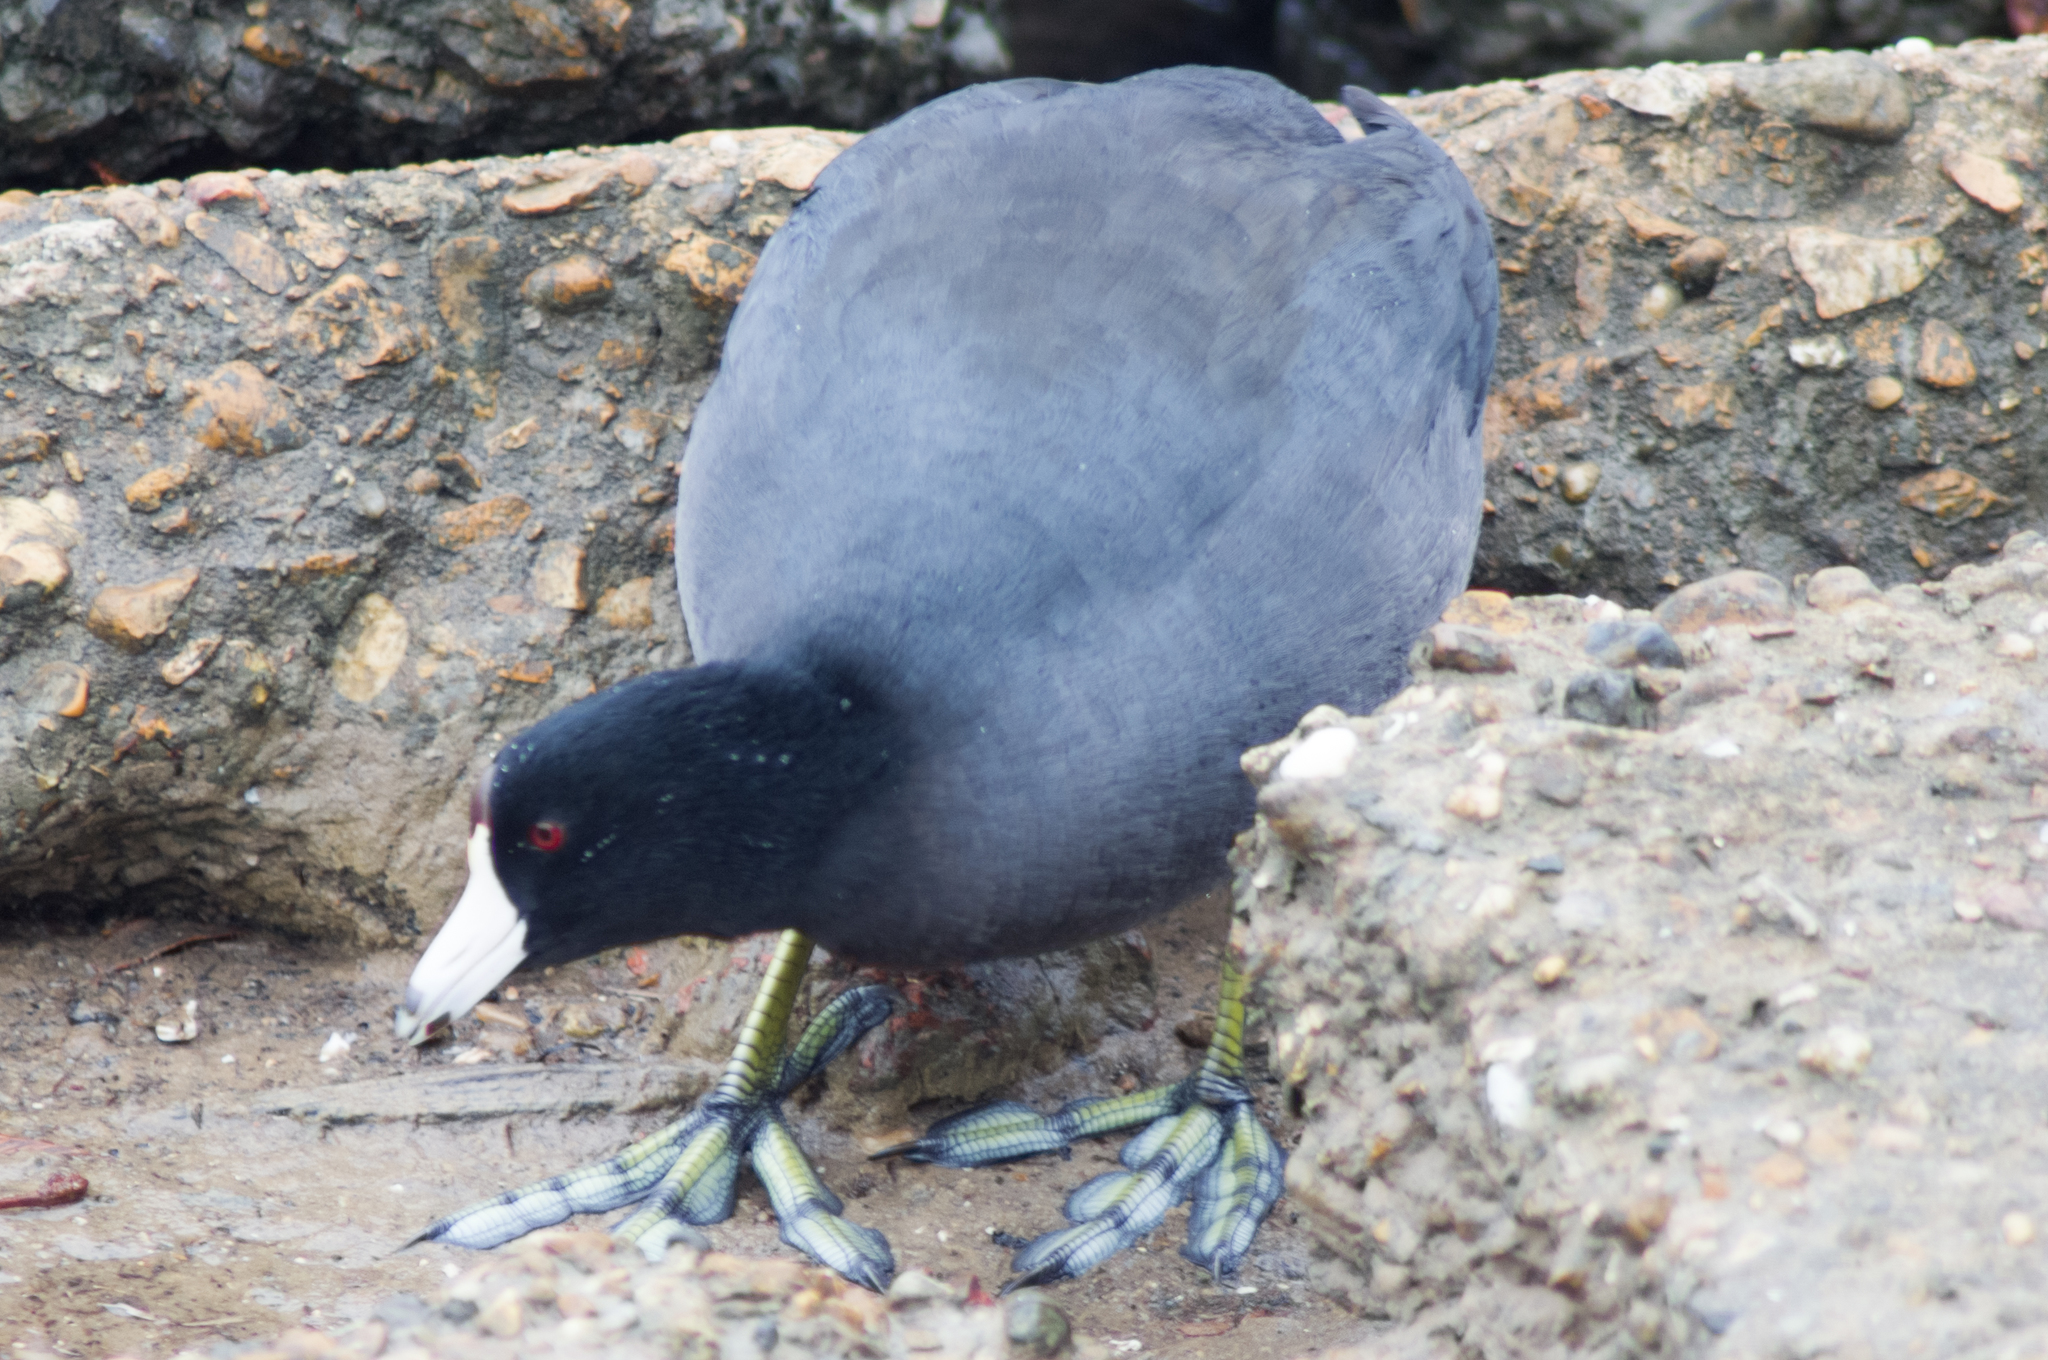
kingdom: Animalia
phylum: Chordata
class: Aves
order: Gruiformes
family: Rallidae
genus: Fulica
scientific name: Fulica americana
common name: American coot
